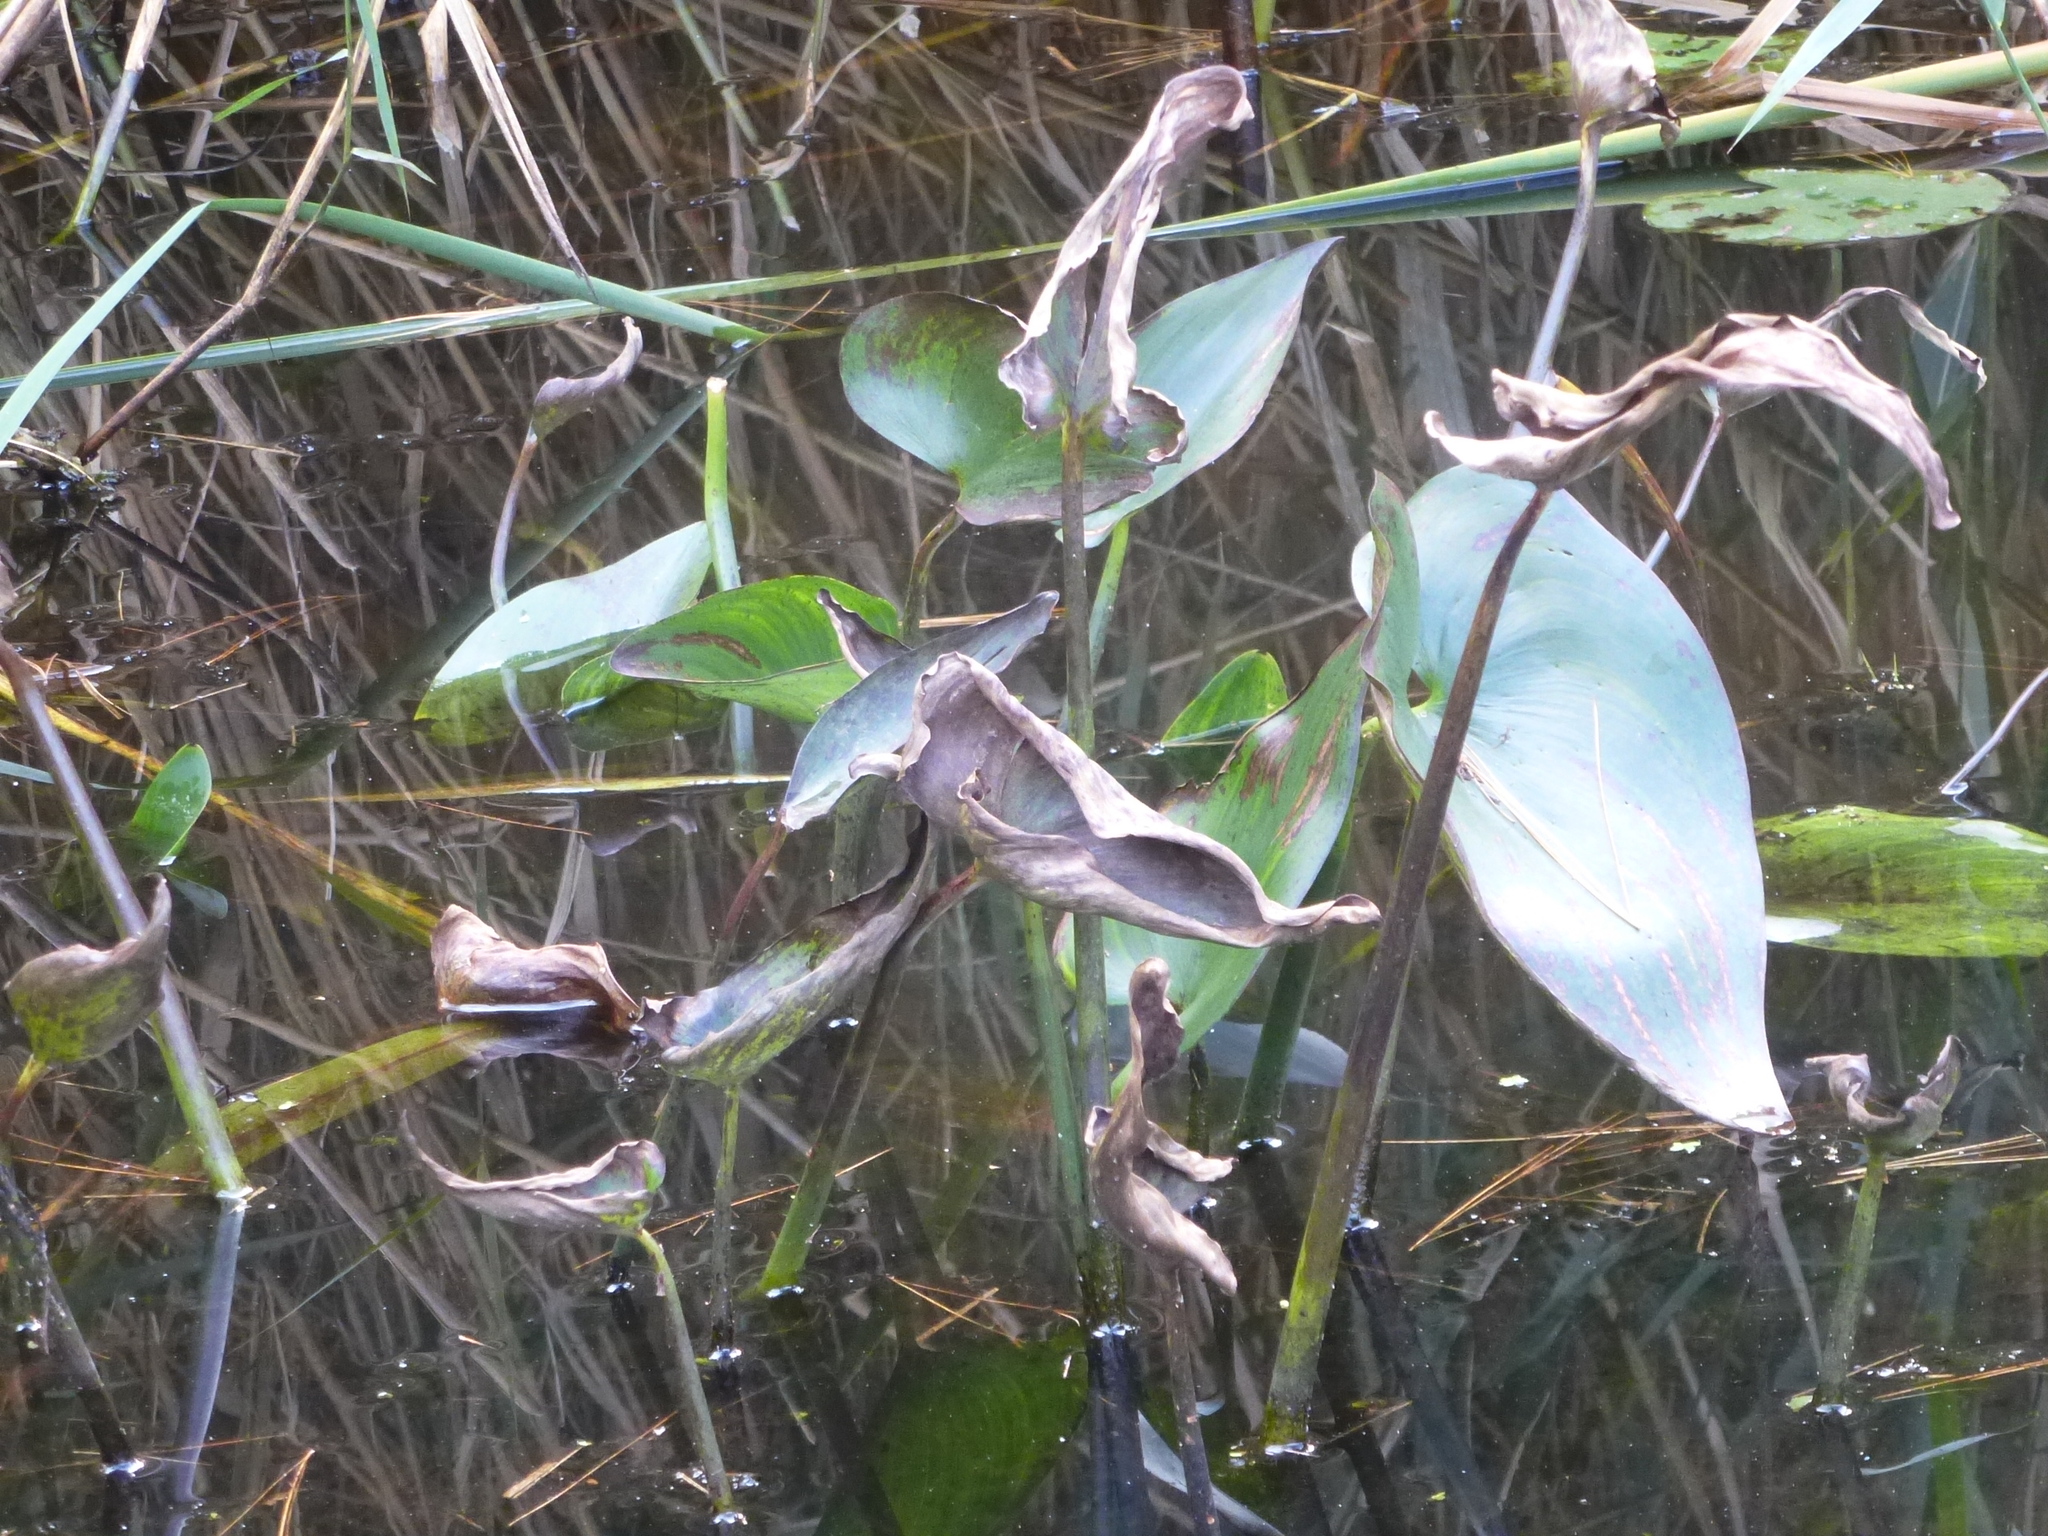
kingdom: Plantae
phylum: Tracheophyta
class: Liliopsida
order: Commelinales
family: Pontederiaceae
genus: Pontederia
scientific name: Pontederia cordata
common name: Pickerelweed
